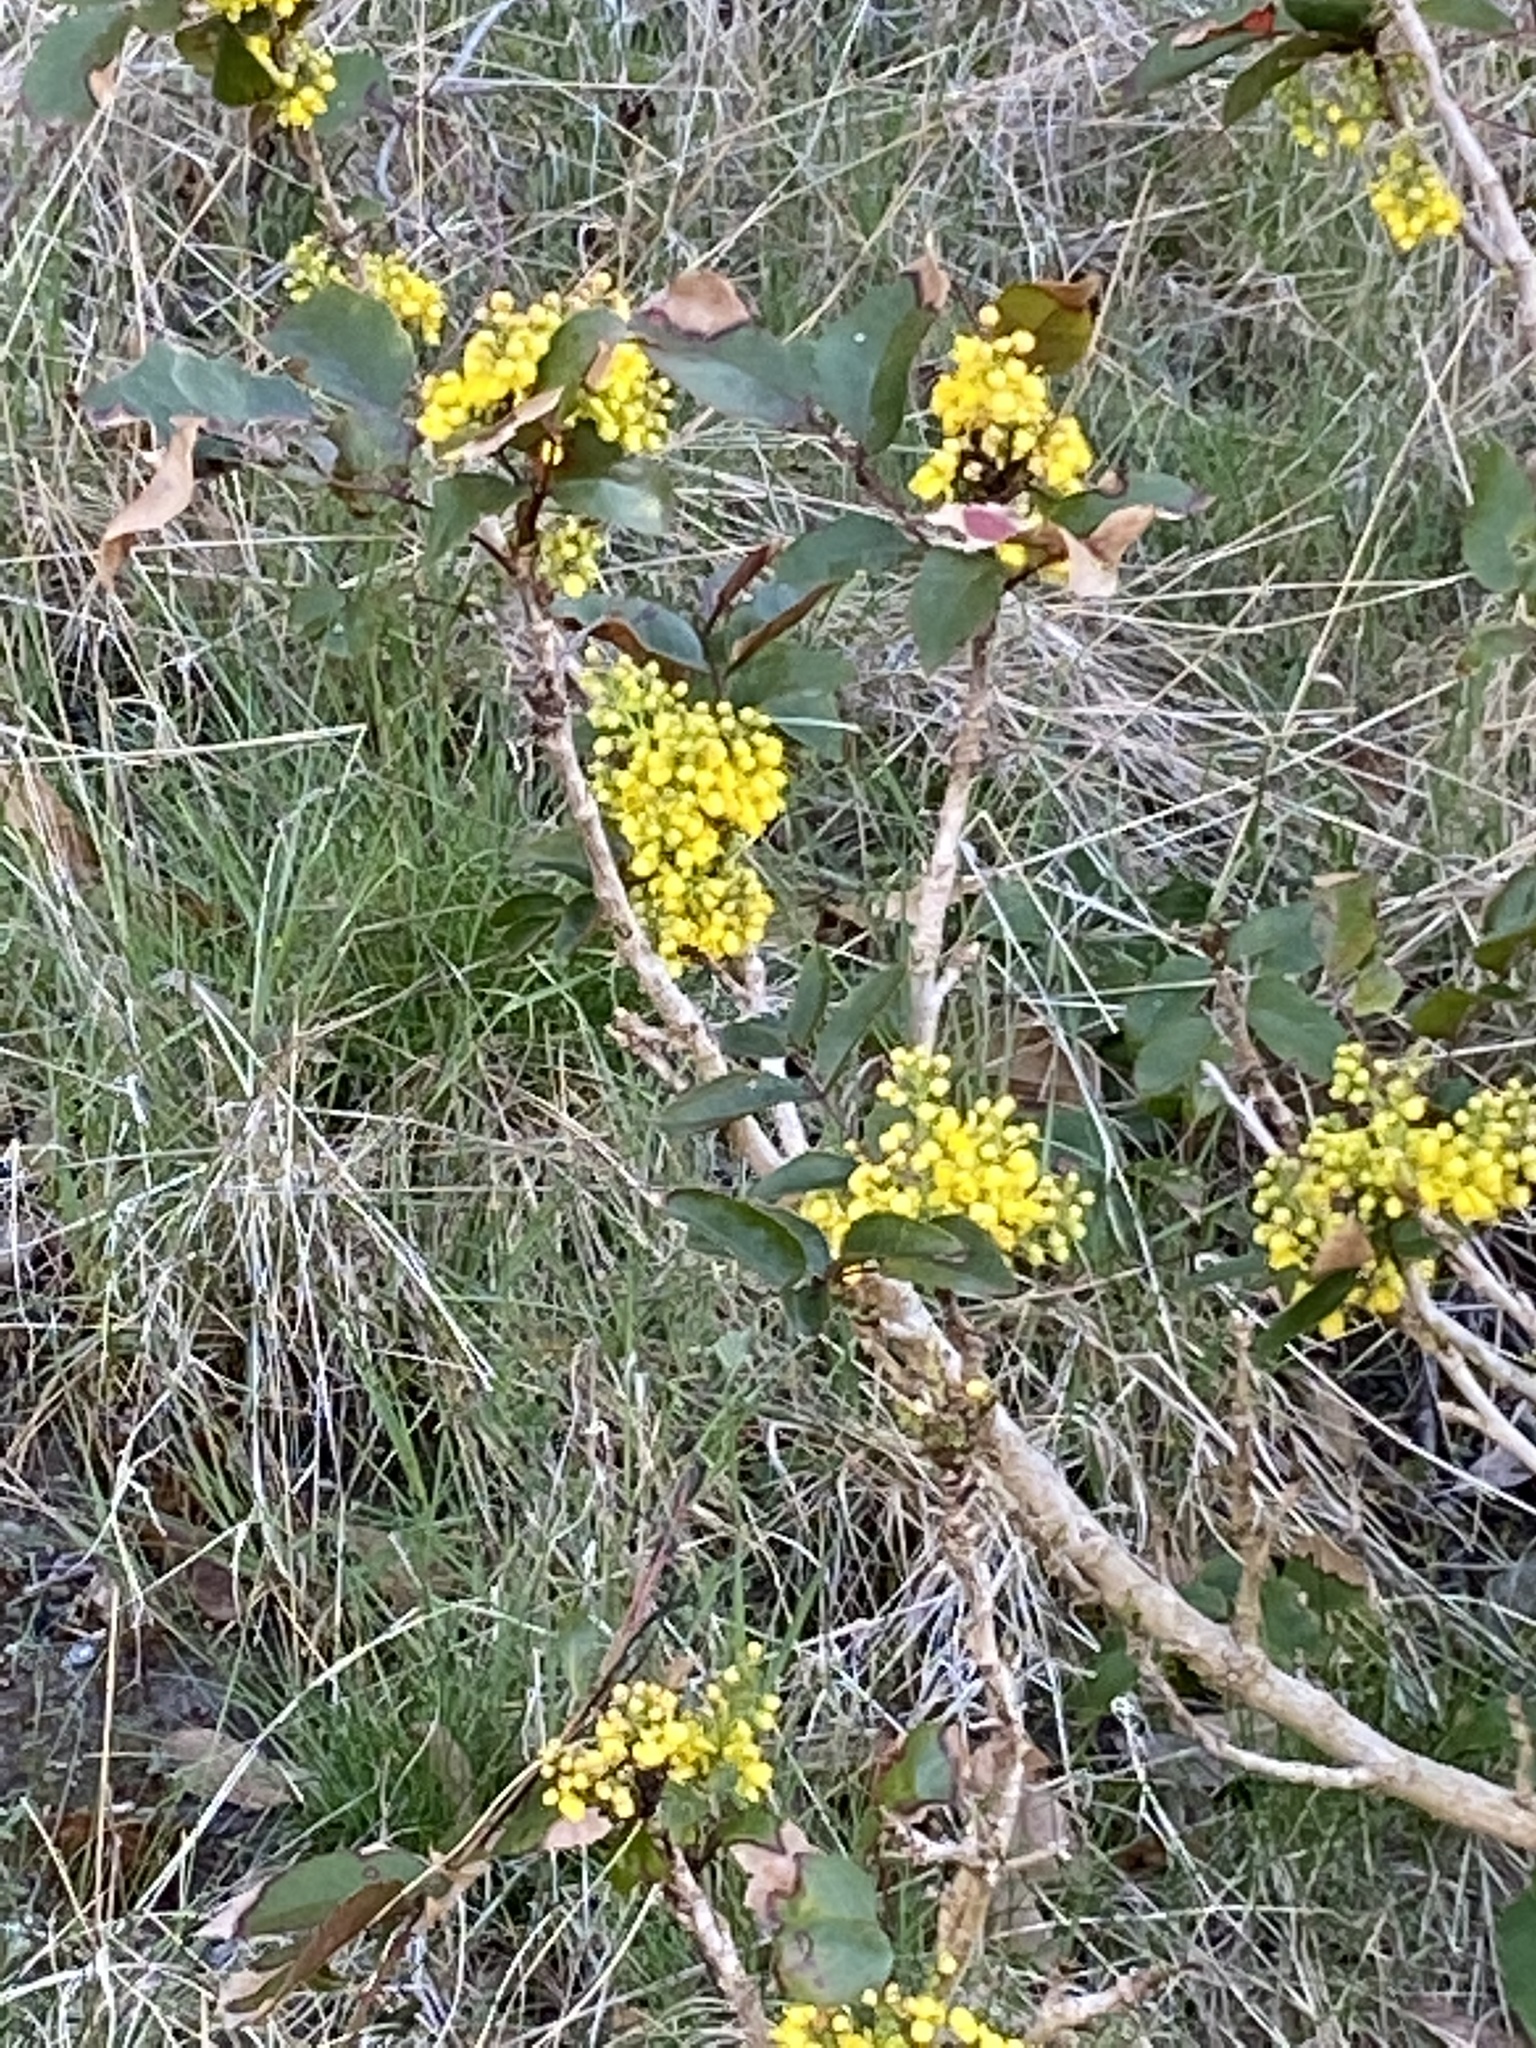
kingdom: Plantae
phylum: Tracheophyta
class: Magnoliopsida
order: Ranunculales
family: Berberidaceae
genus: Mahonia
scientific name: Mahonia aquifolium
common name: Oregon-grape
